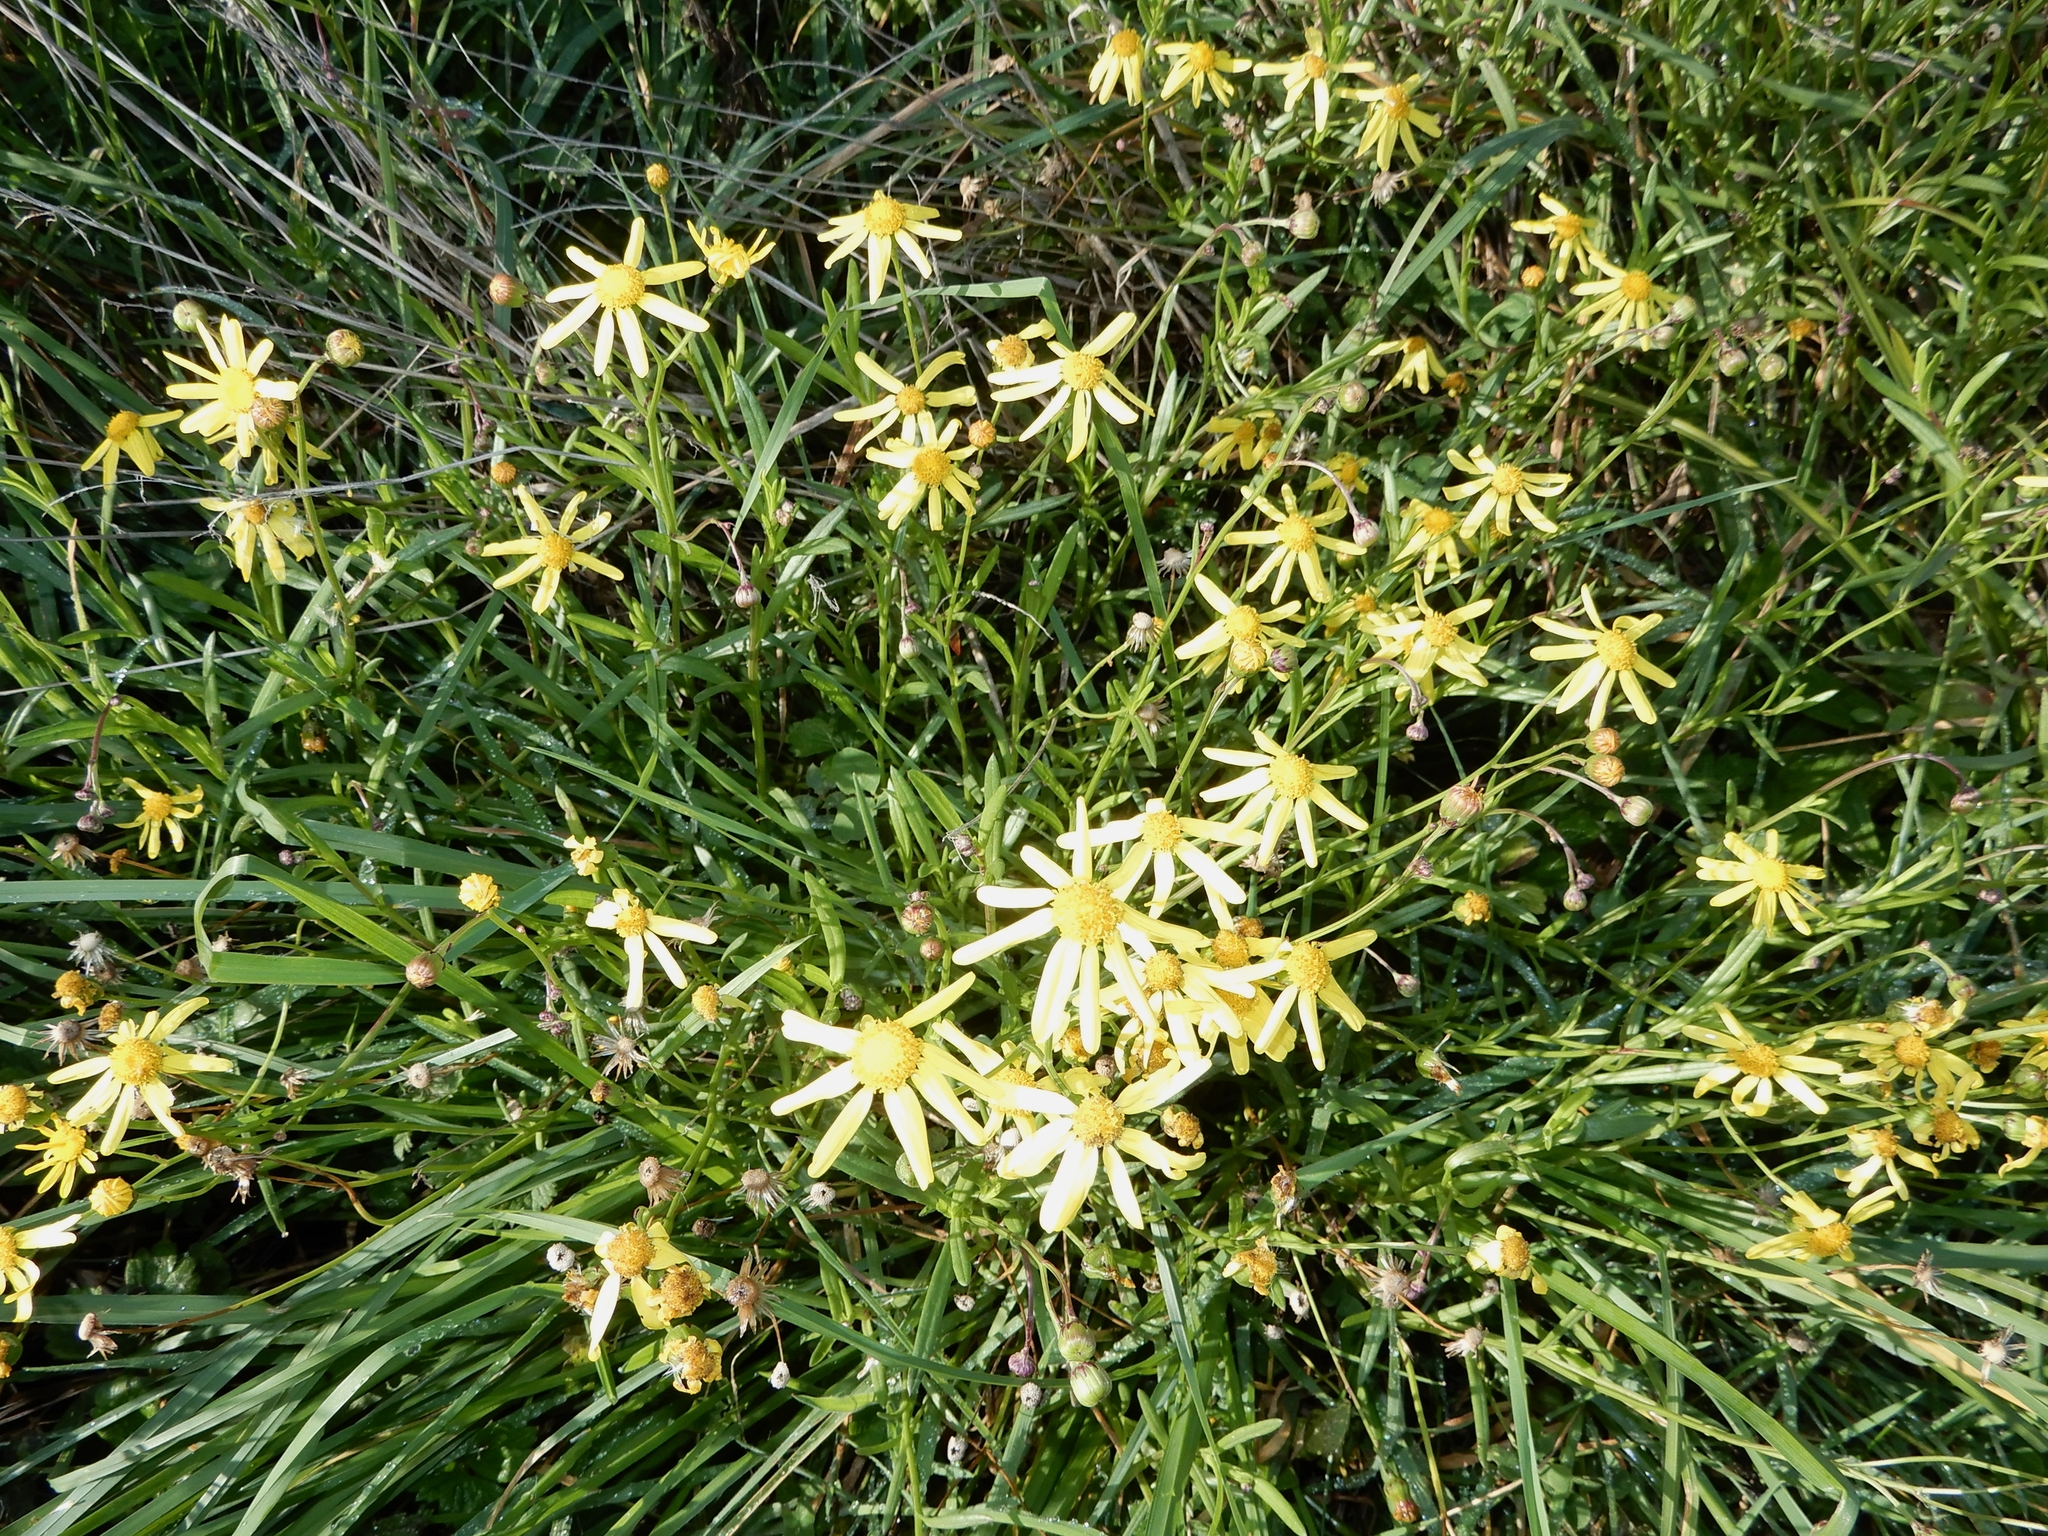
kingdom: Plantae
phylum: Tracheophyta
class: Magnoliopsida
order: Asterales
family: Asteraceae
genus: Senecio
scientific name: Senecio skirrhodon
